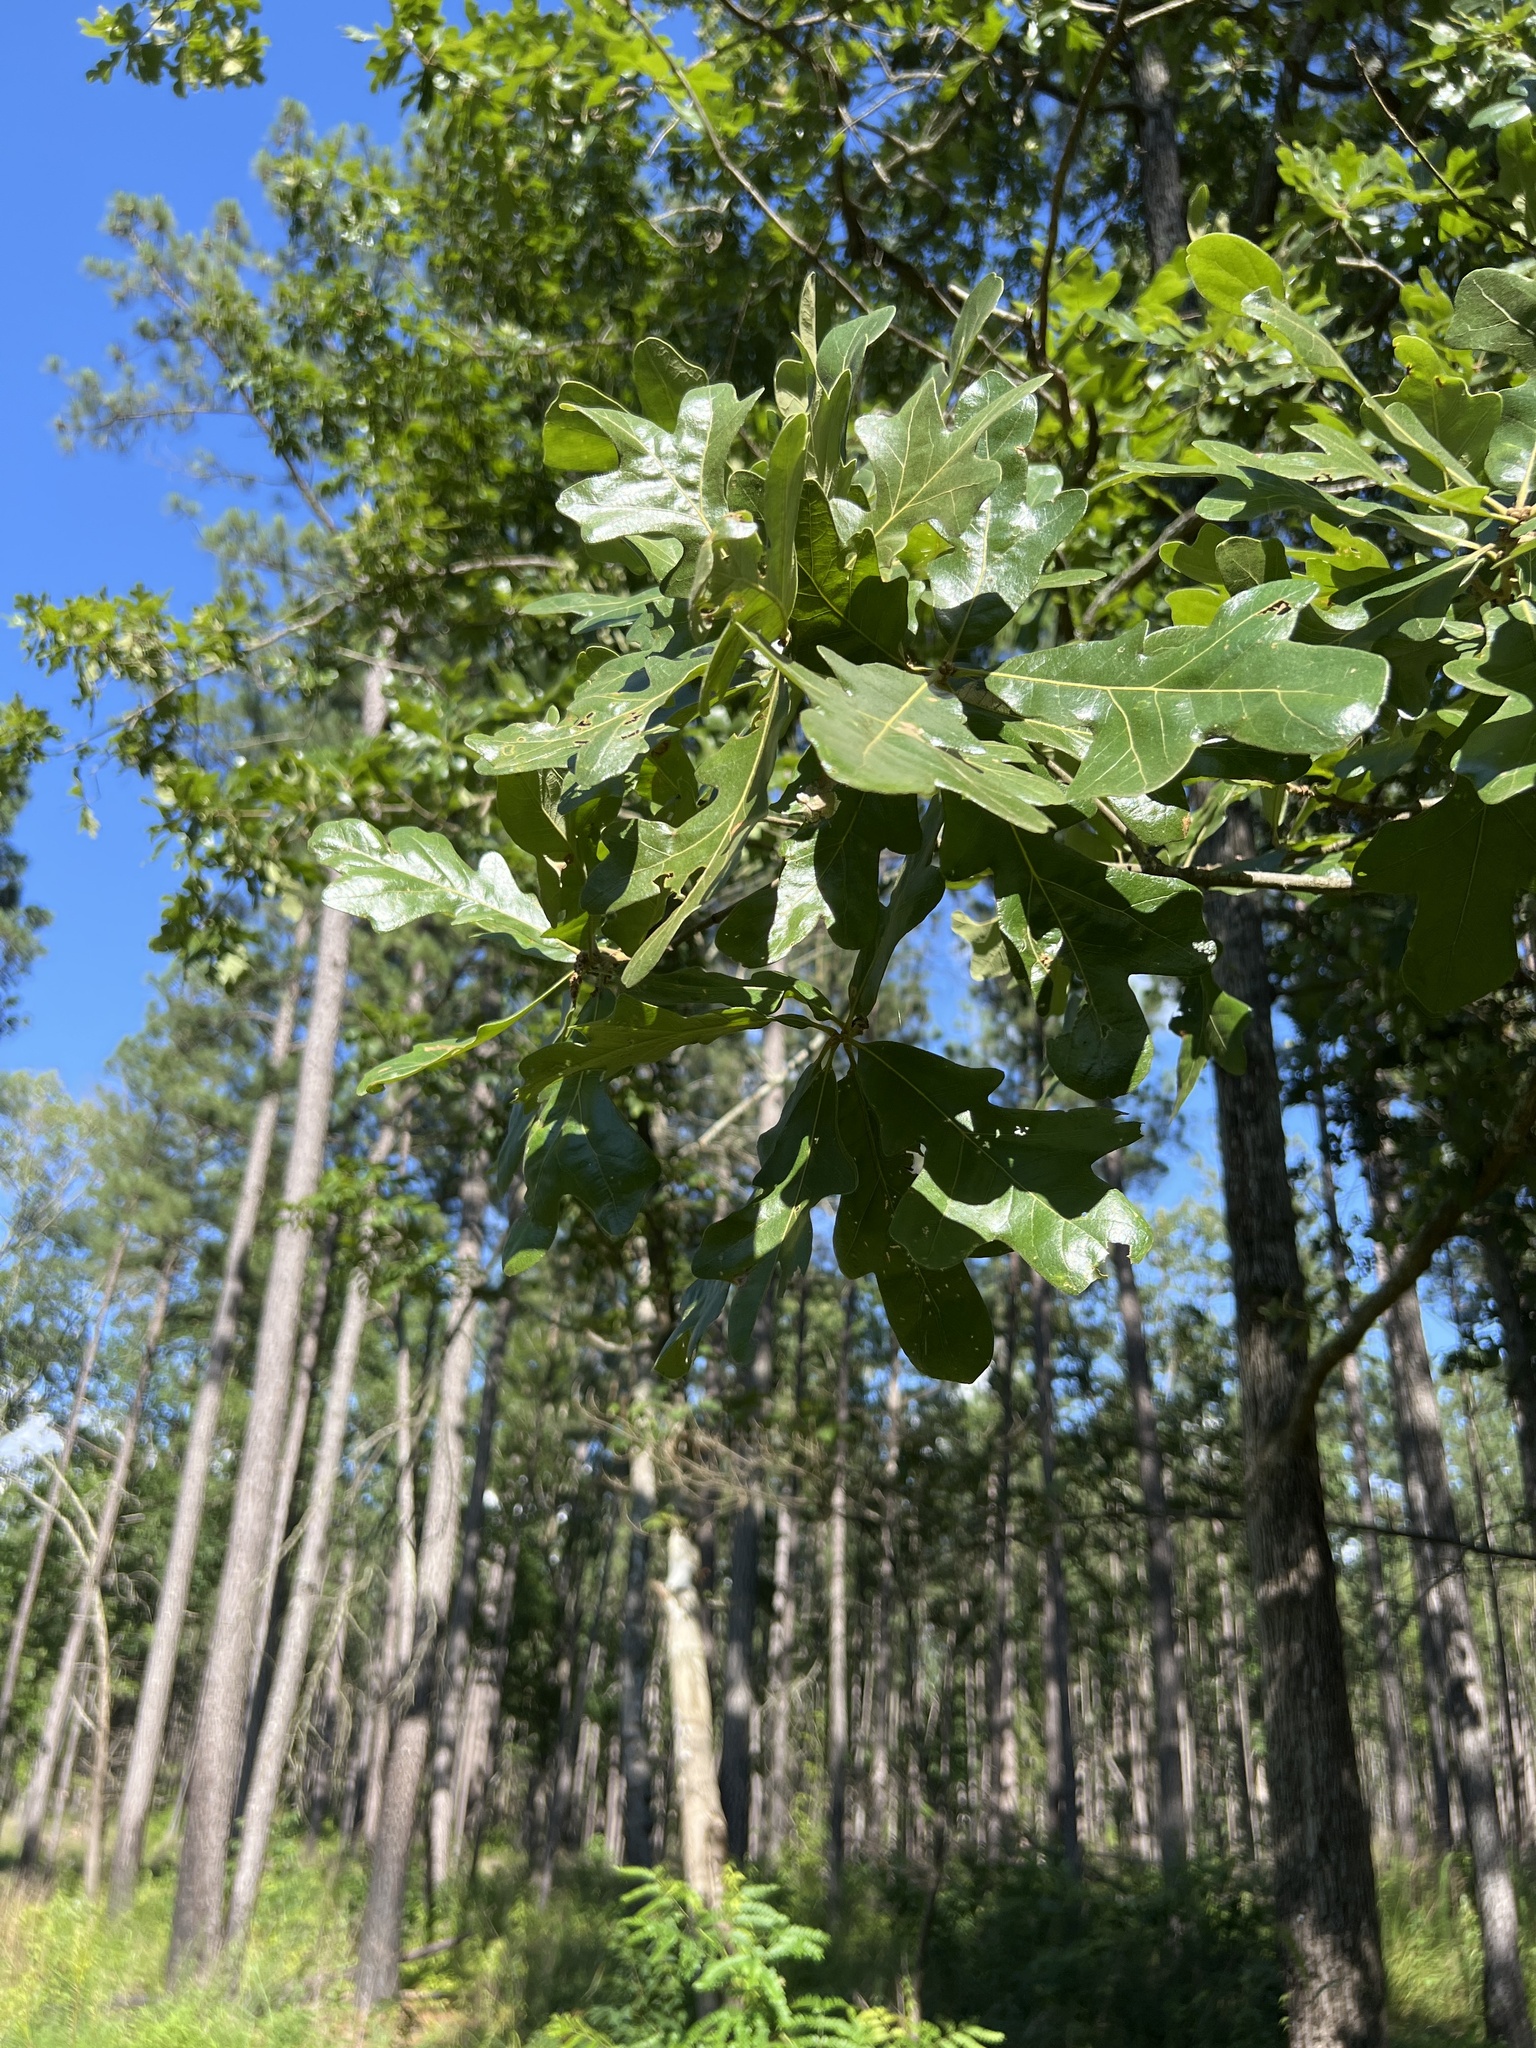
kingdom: Plantae
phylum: Tracheophyta
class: Magnoliopsida
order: Fagales
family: Fagaceae
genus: Quercus
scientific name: Quercus stellata
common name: Post oak
